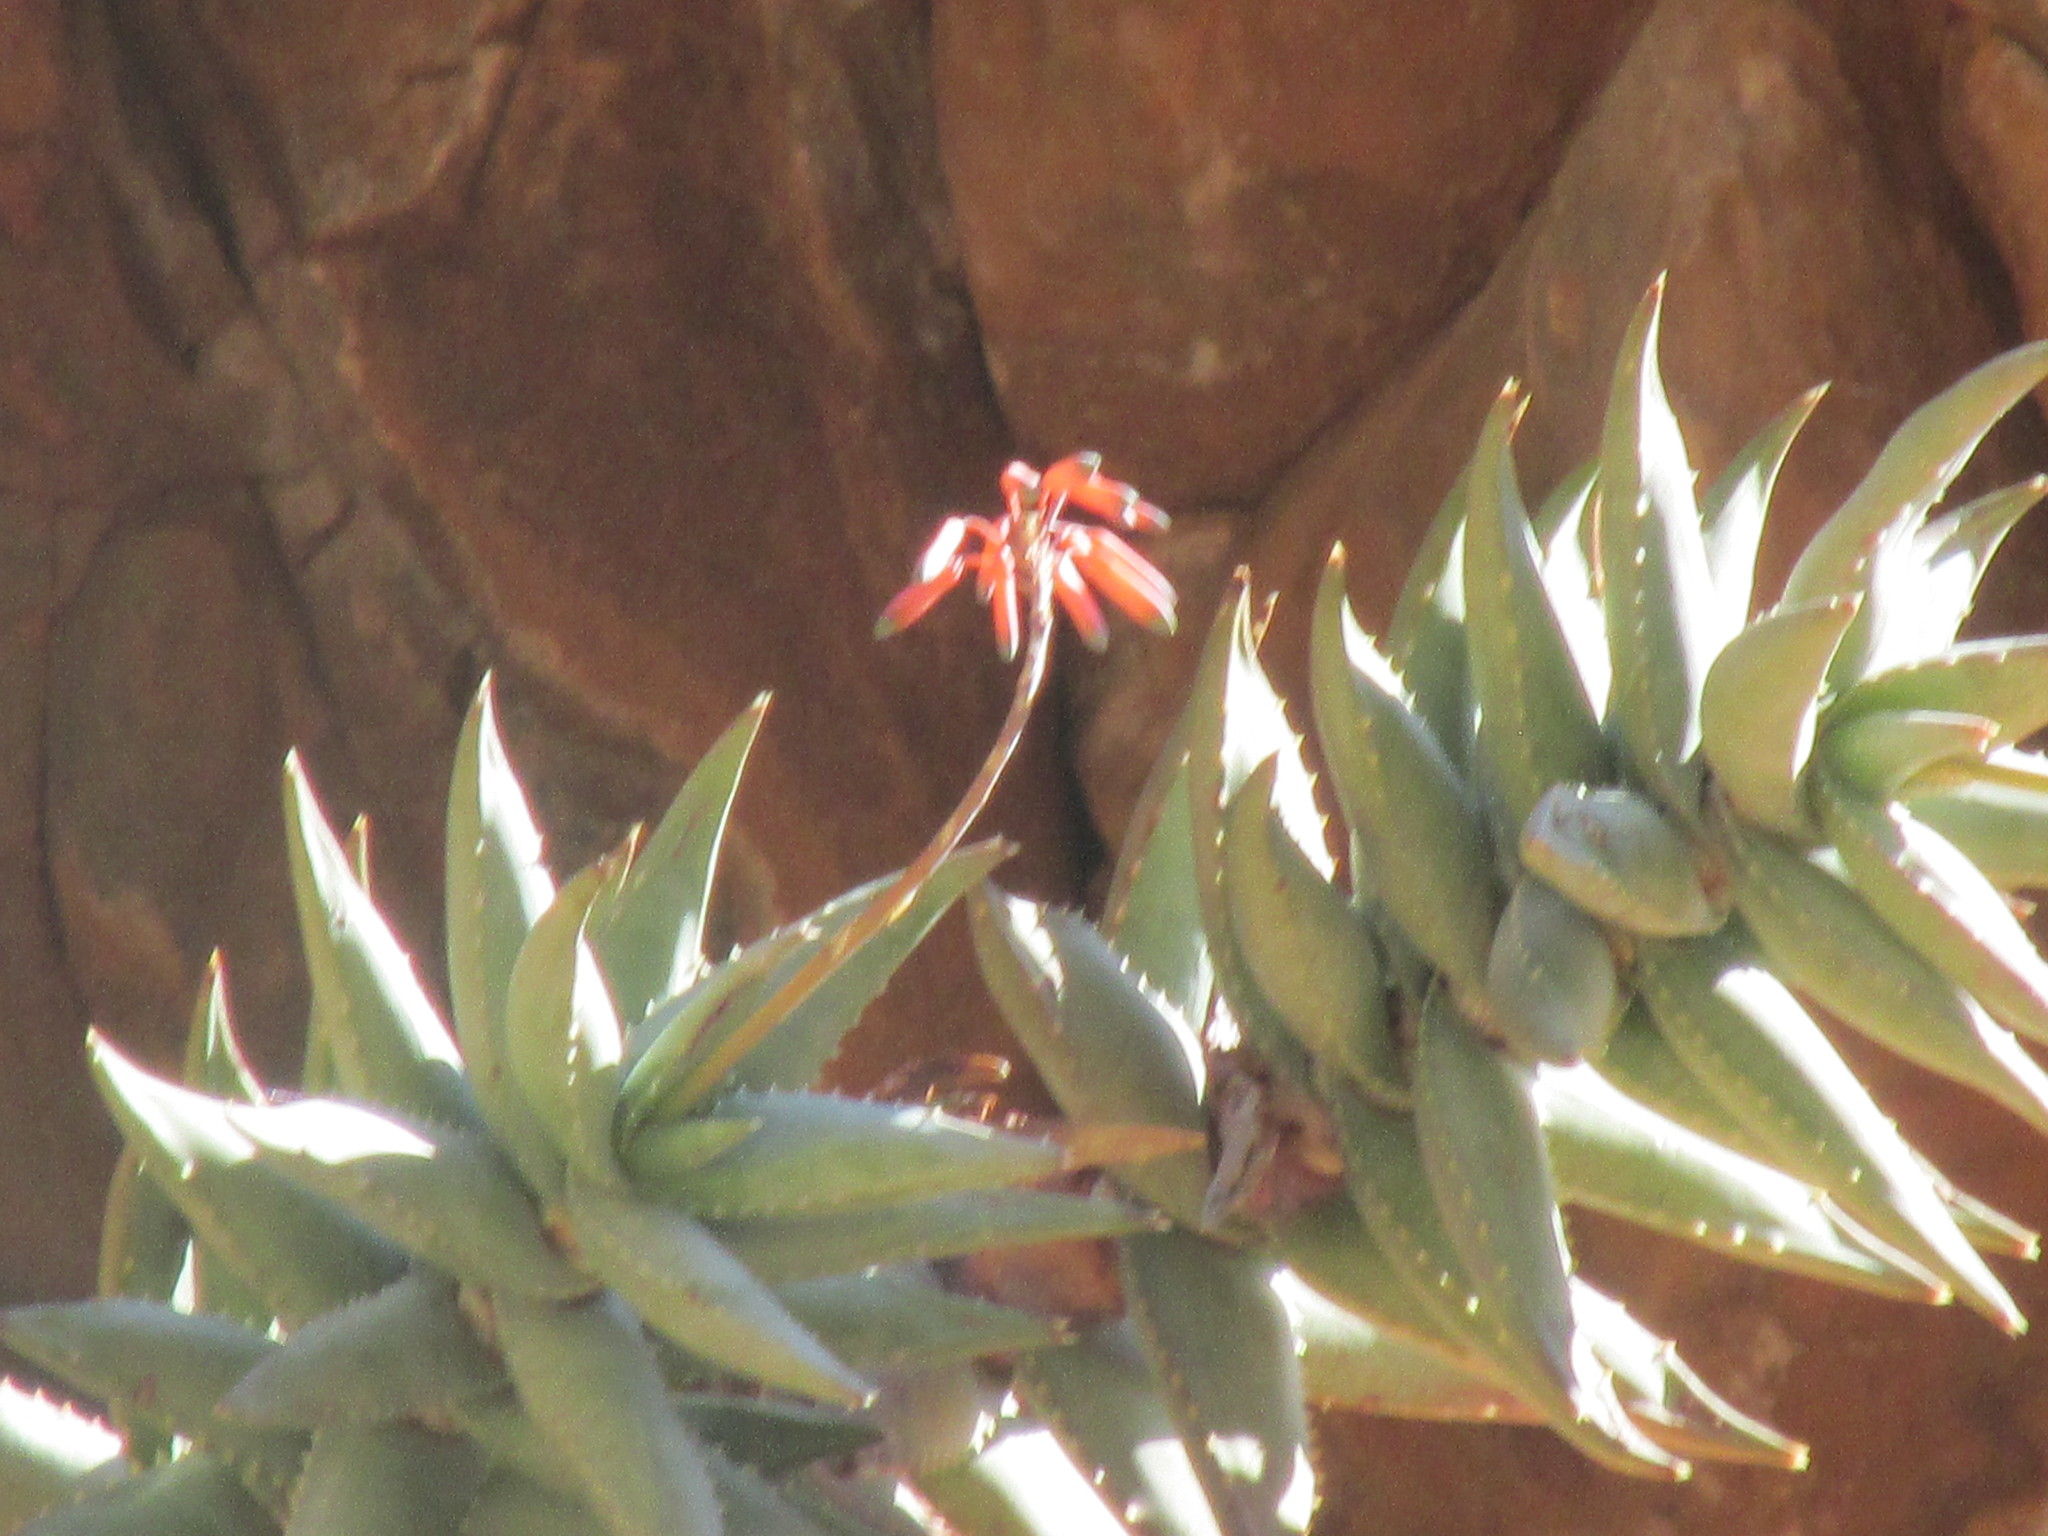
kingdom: Plantae
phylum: Tracheophyta
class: Liliopsida
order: Asparagales
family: Asphodelaceae
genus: Aloe
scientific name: Aloe meyeri
